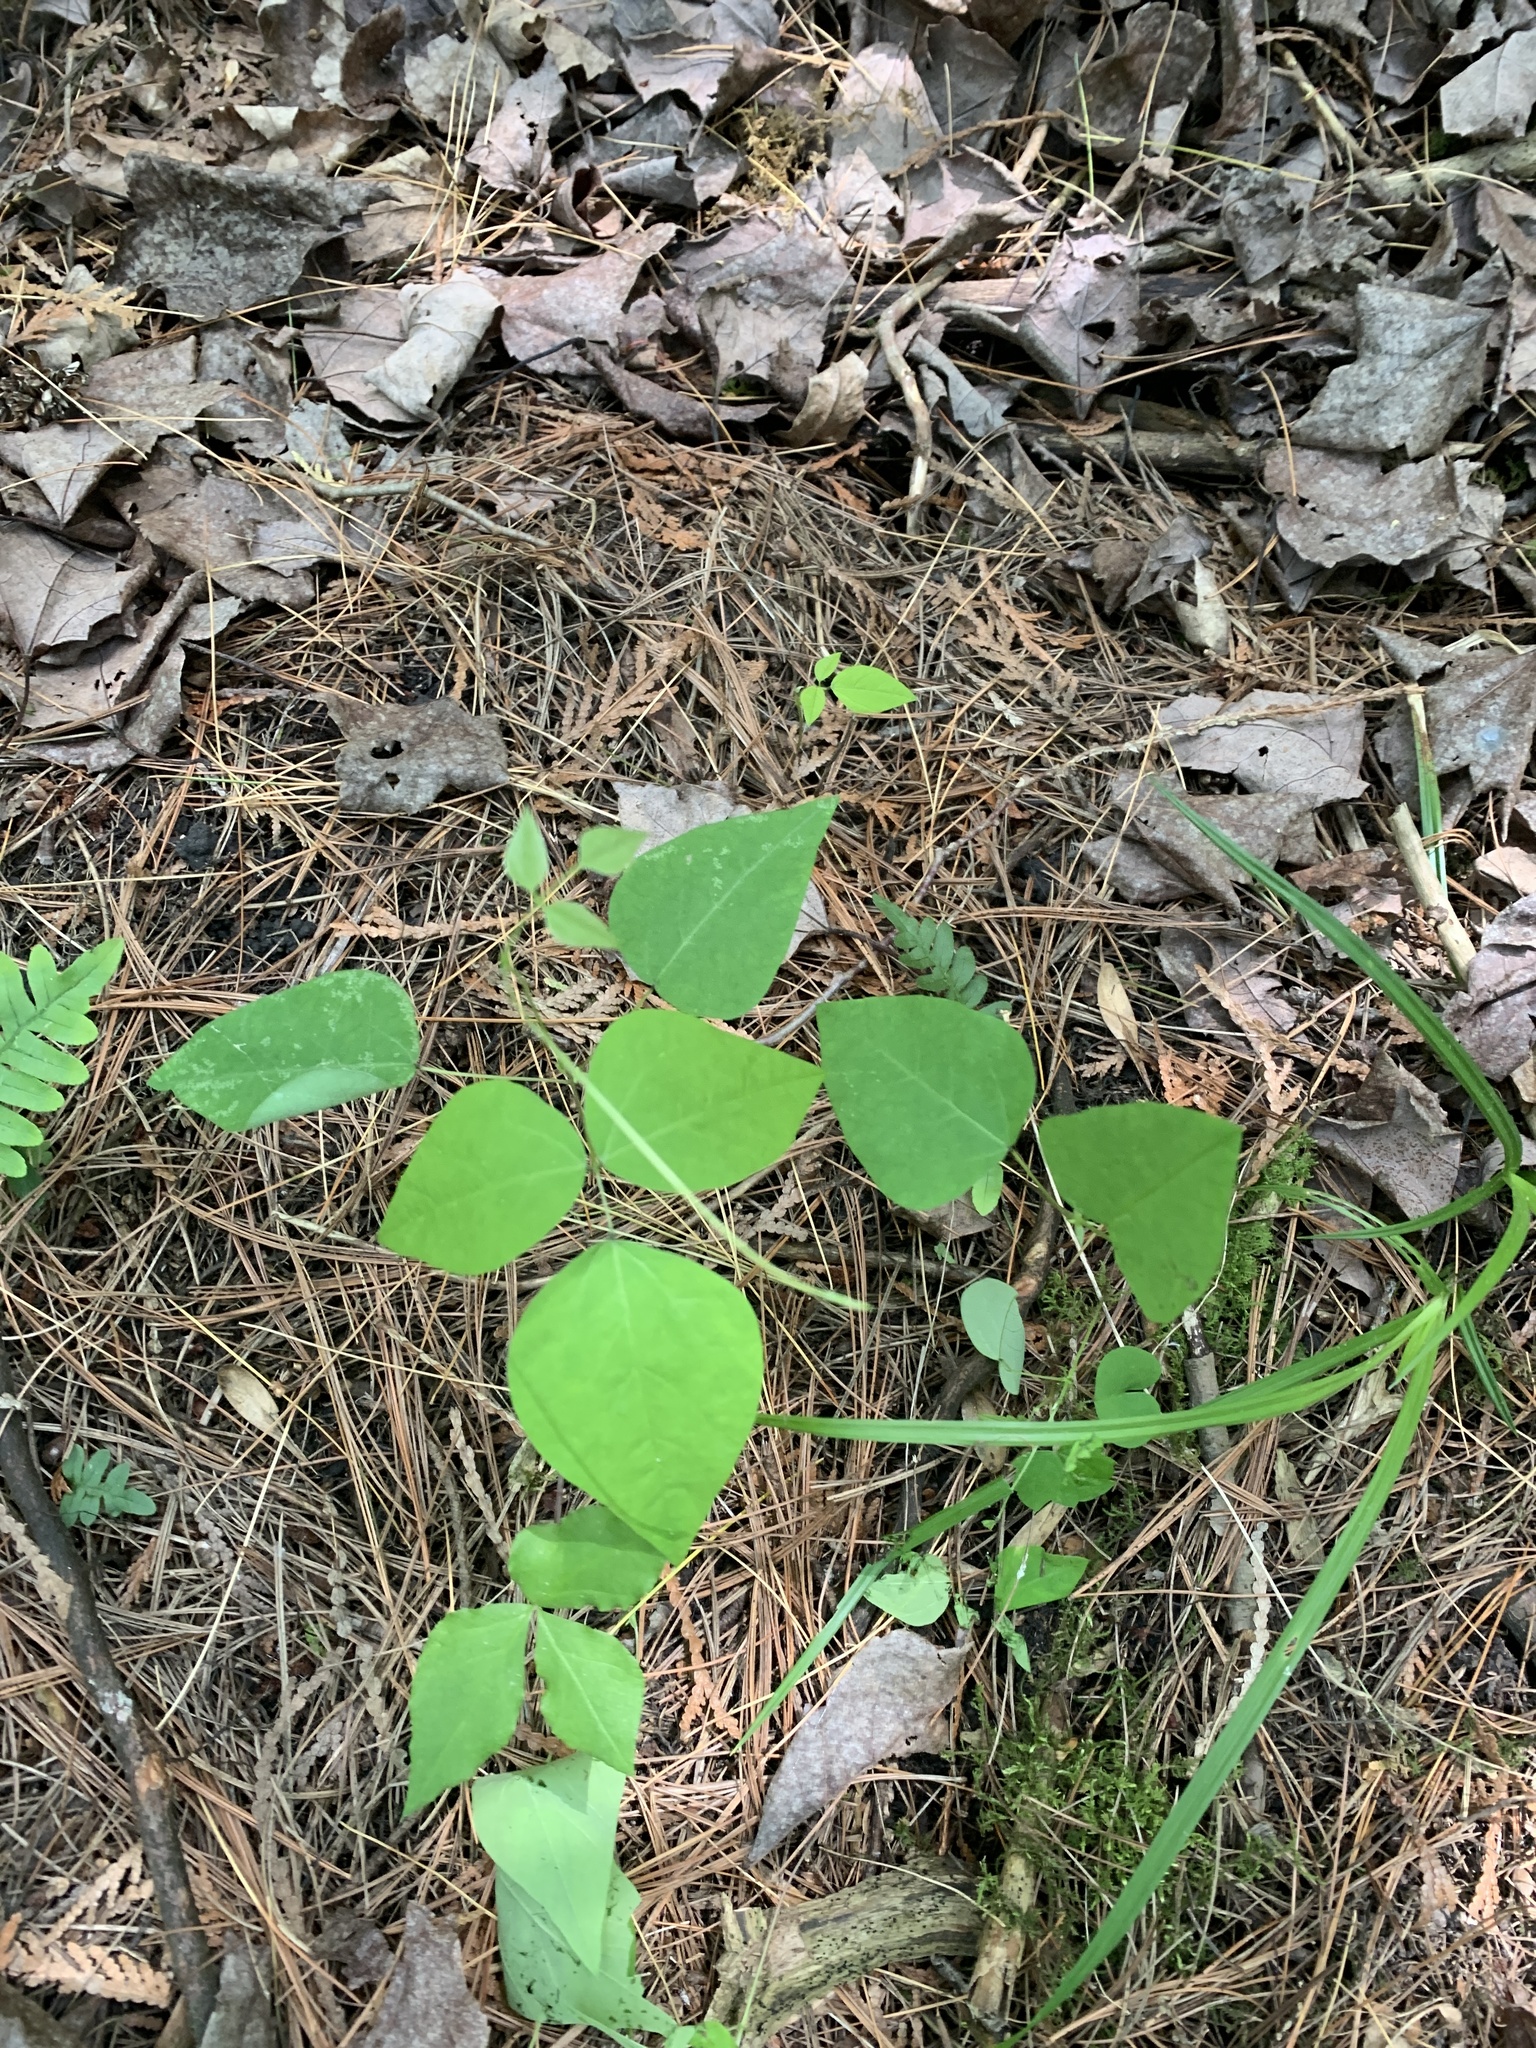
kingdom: Plantae
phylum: Tracheophyta
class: Magnoliopsida
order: Fabales
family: Fabaceae
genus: Amphicarpaea
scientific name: Amphicarpaea bracteata
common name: American hog peanut
